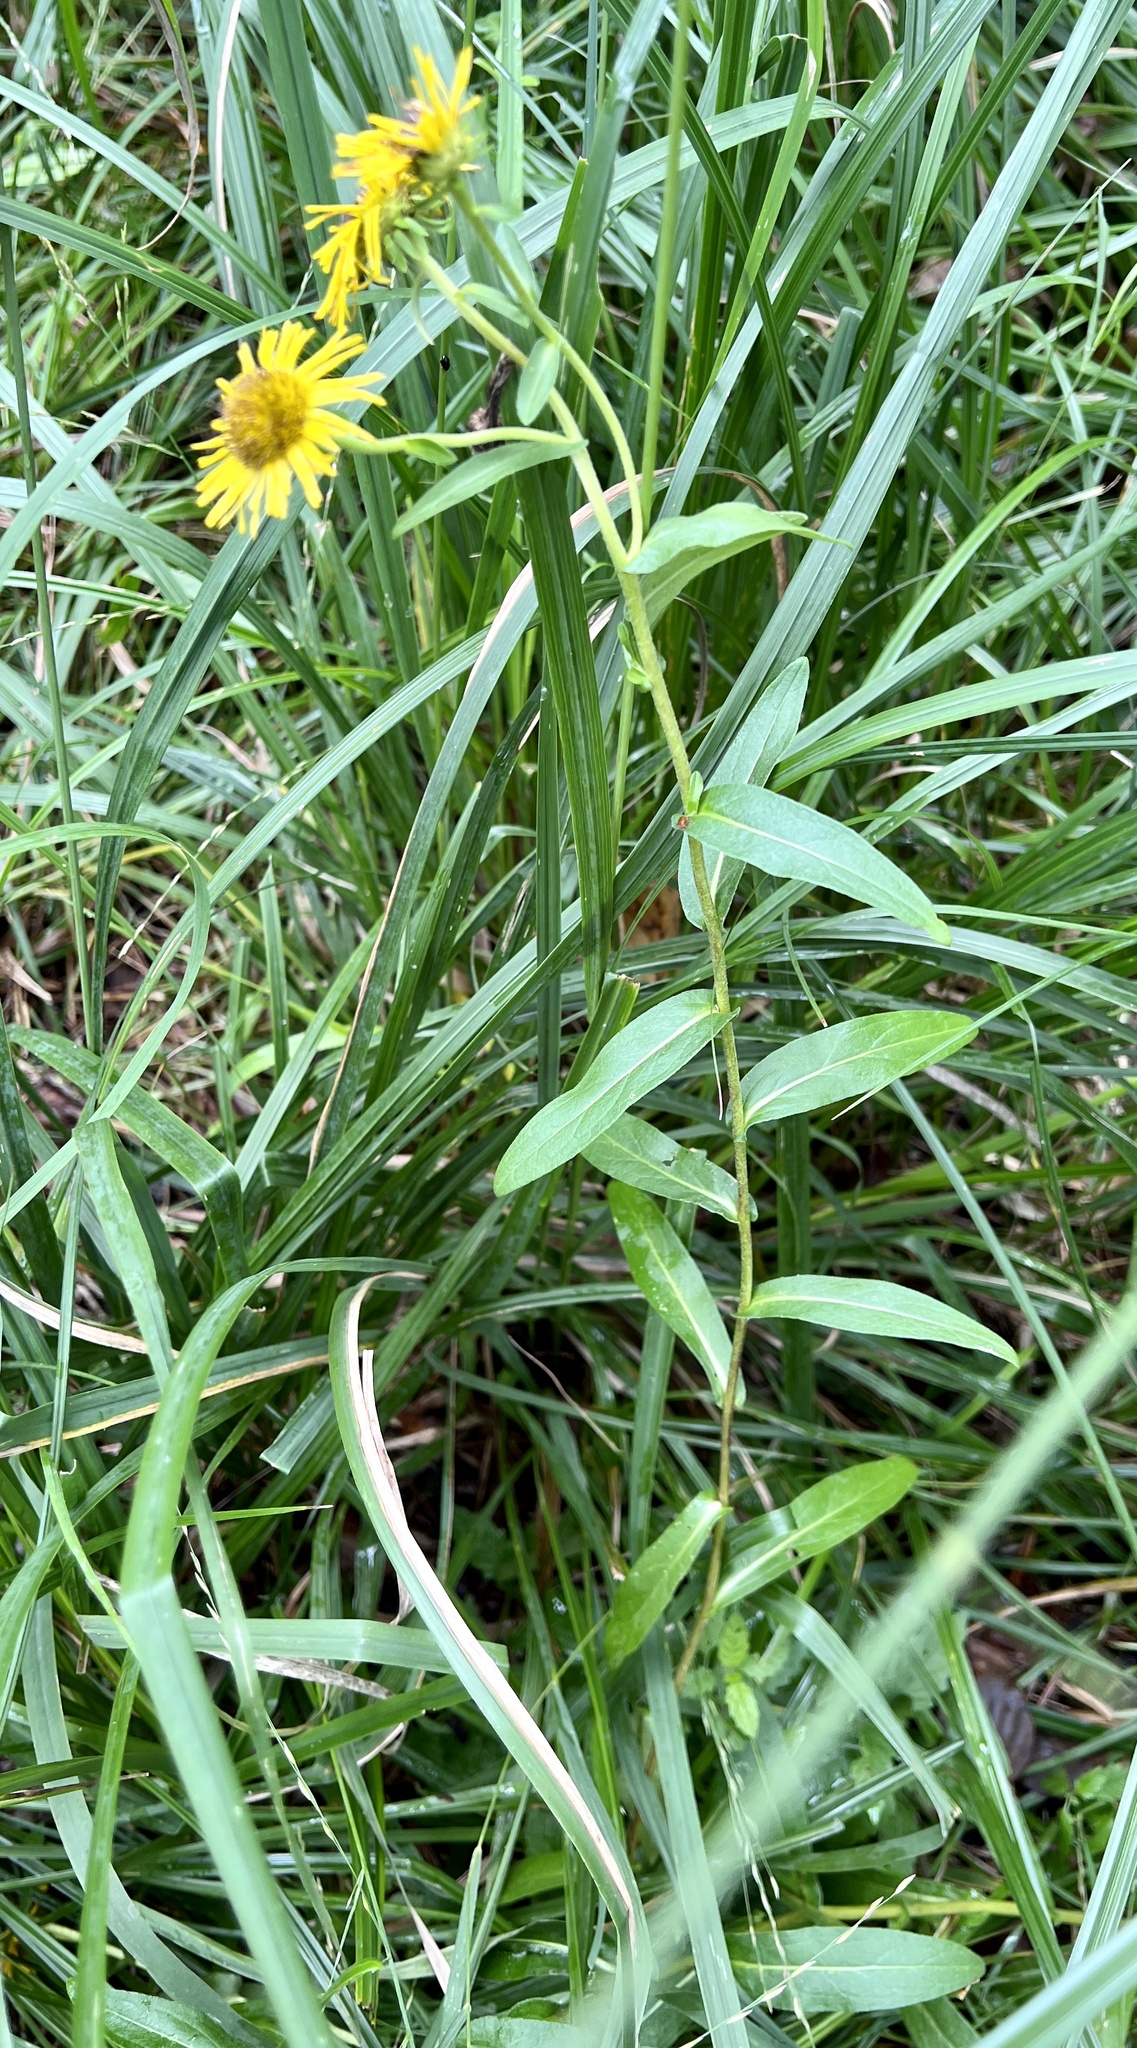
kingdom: Plantae
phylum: Tracheophyta
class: Magnoliopsida
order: Asterales
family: Asteraceae
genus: Pentanema
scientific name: Pentanema britannicum
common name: British elecampane
